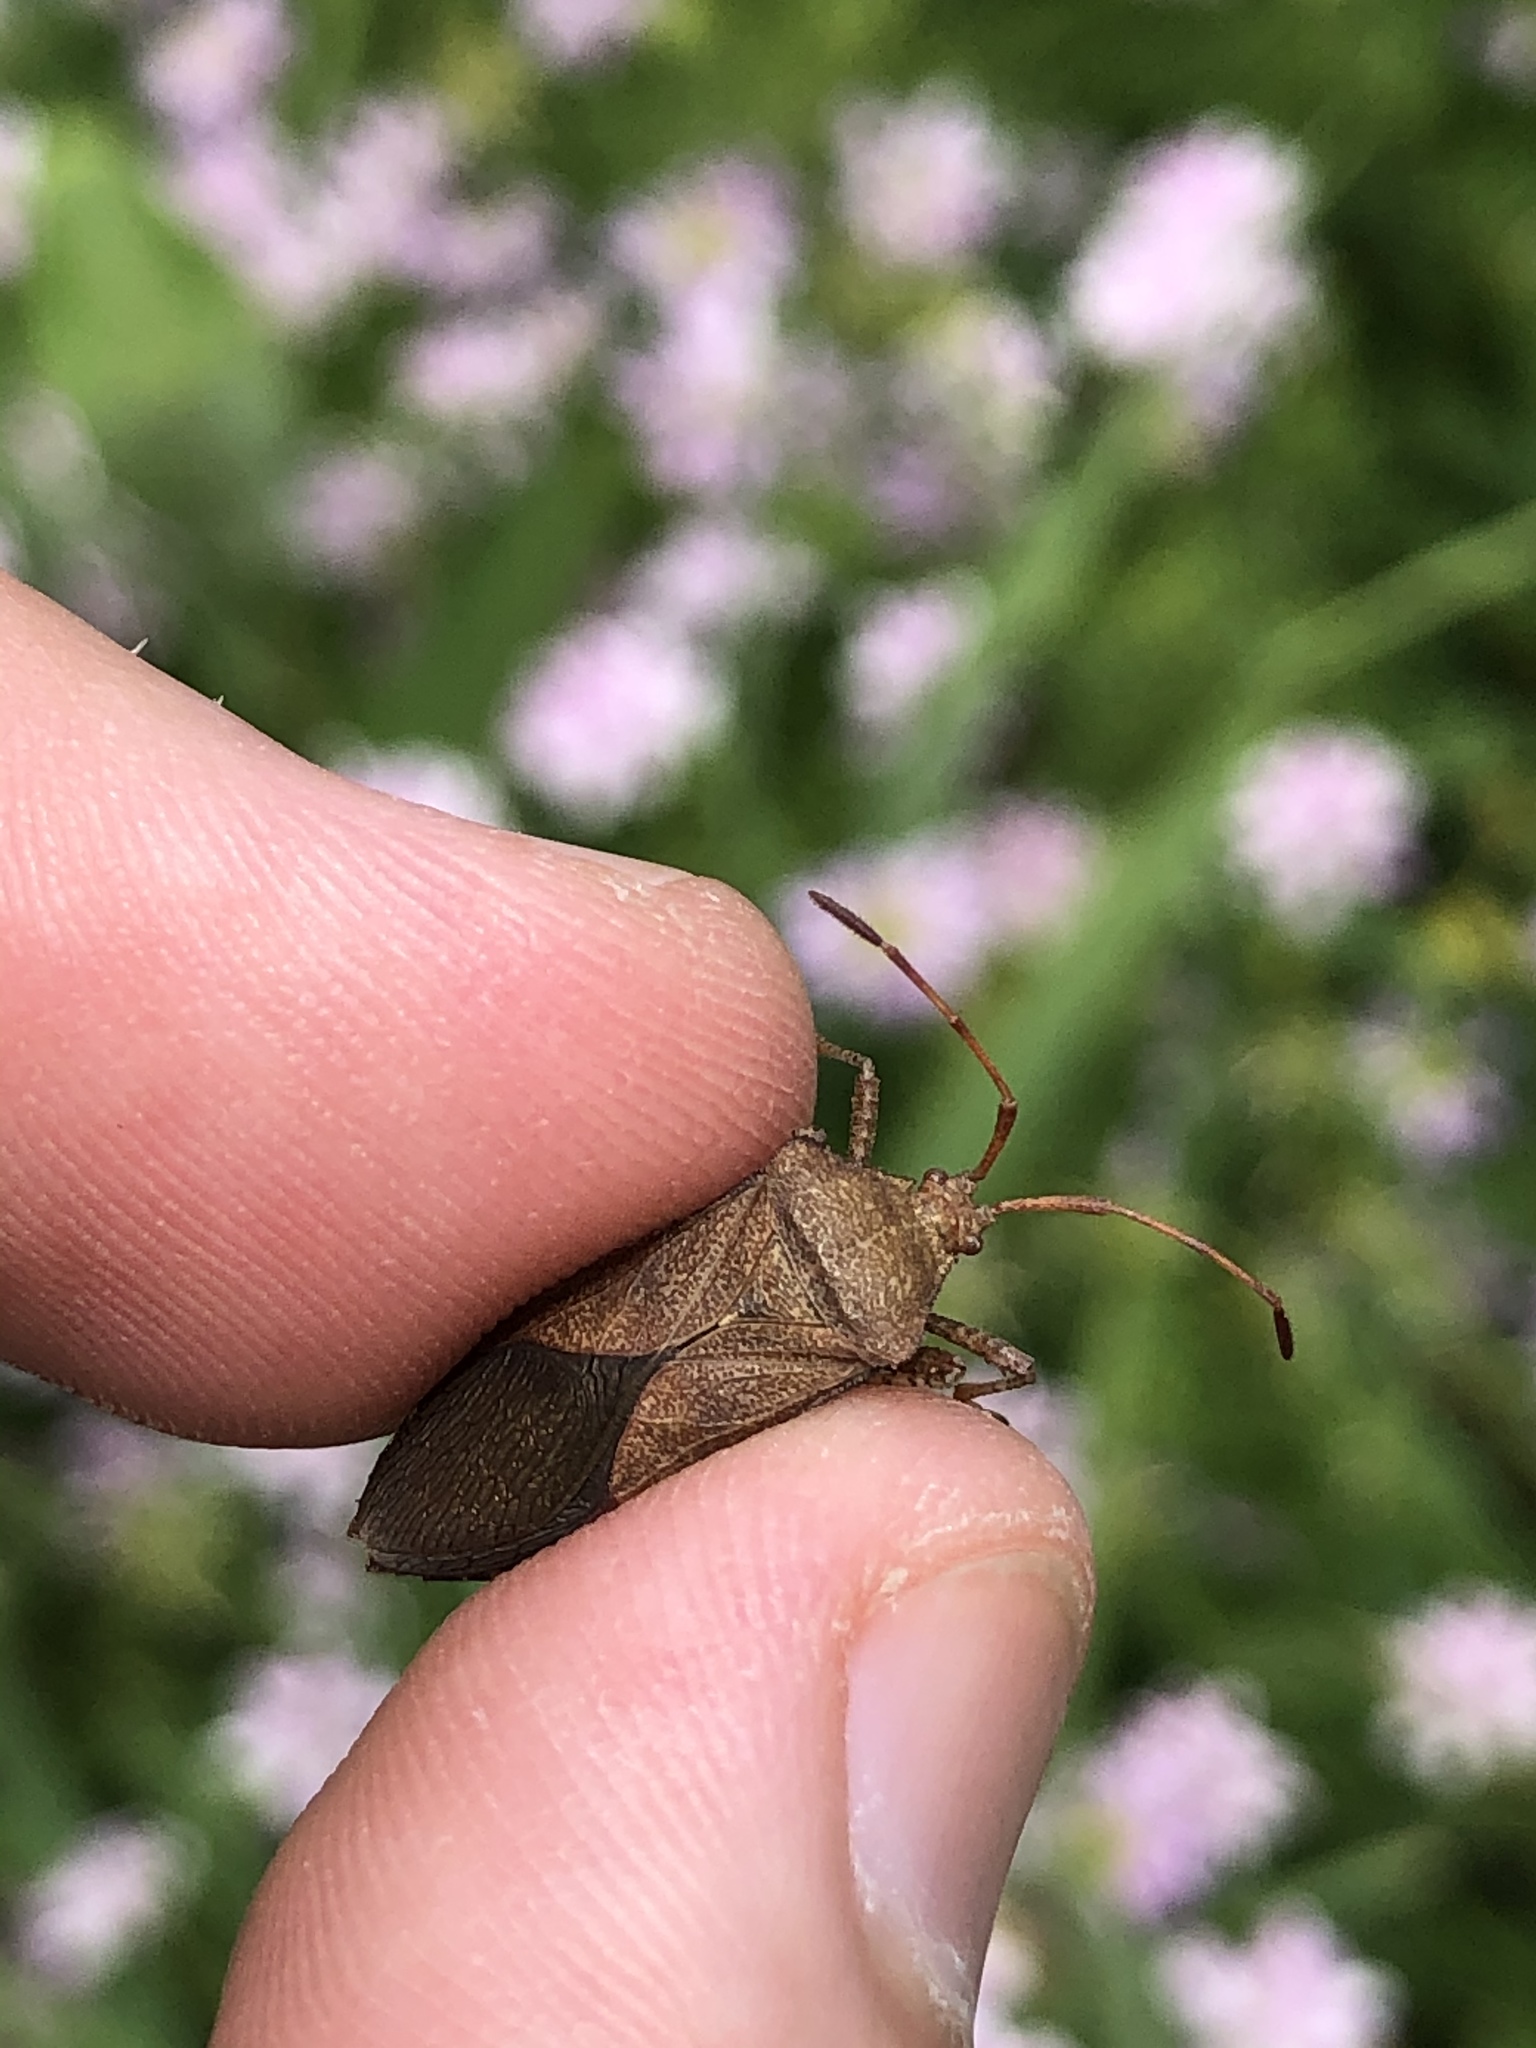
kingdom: Animalia
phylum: Arthropoda
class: Insecta
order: Hemiptera
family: Coreidae
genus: Euthochtha
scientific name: Euthochtha galeator
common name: Helmeted squash bug
